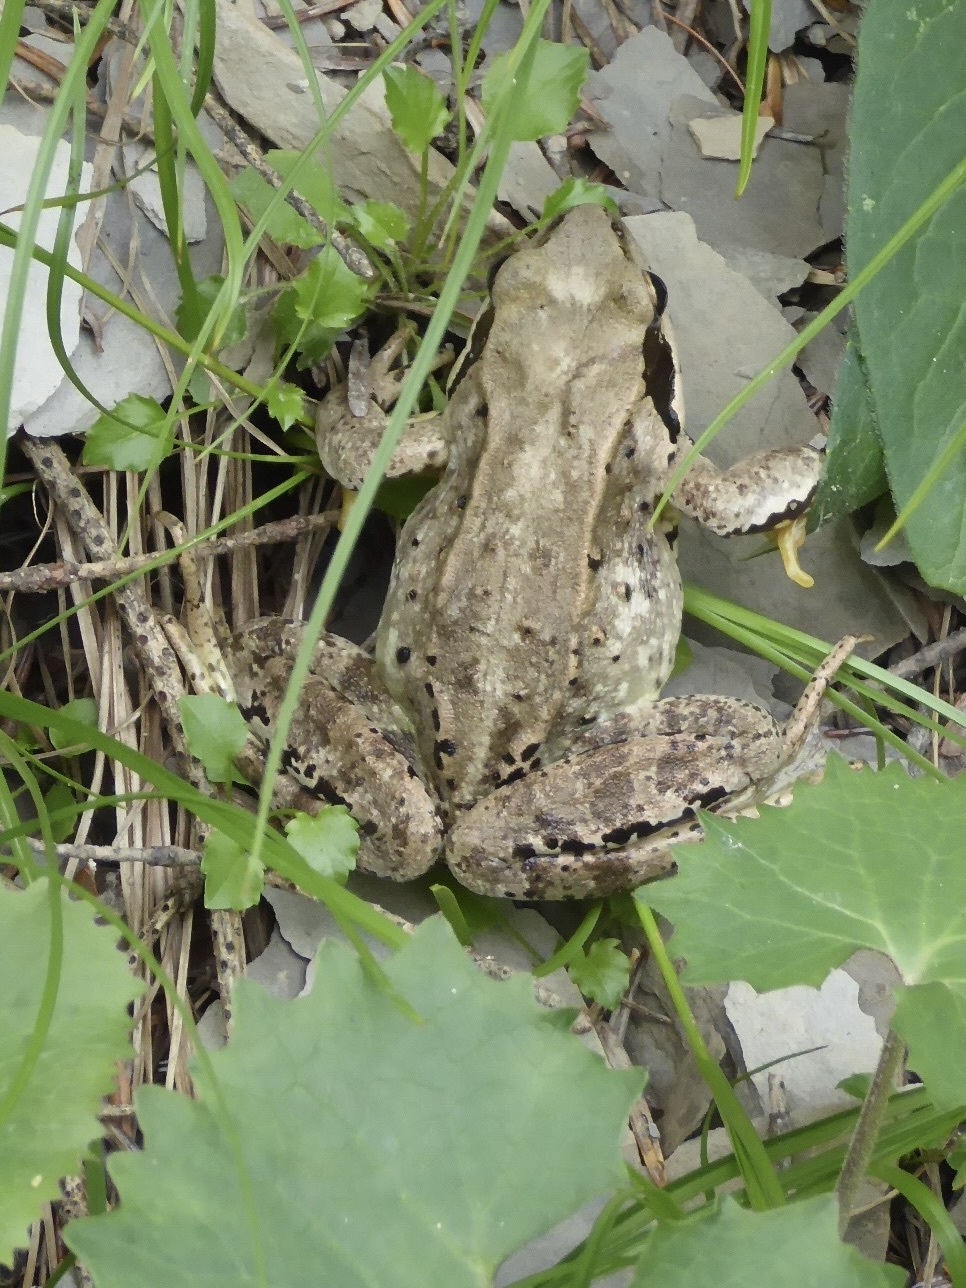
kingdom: Animalia
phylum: Chordata
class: Amphibia
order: Anura
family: Ranidae
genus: Rana
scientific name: Rana temporaria
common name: Common frog
